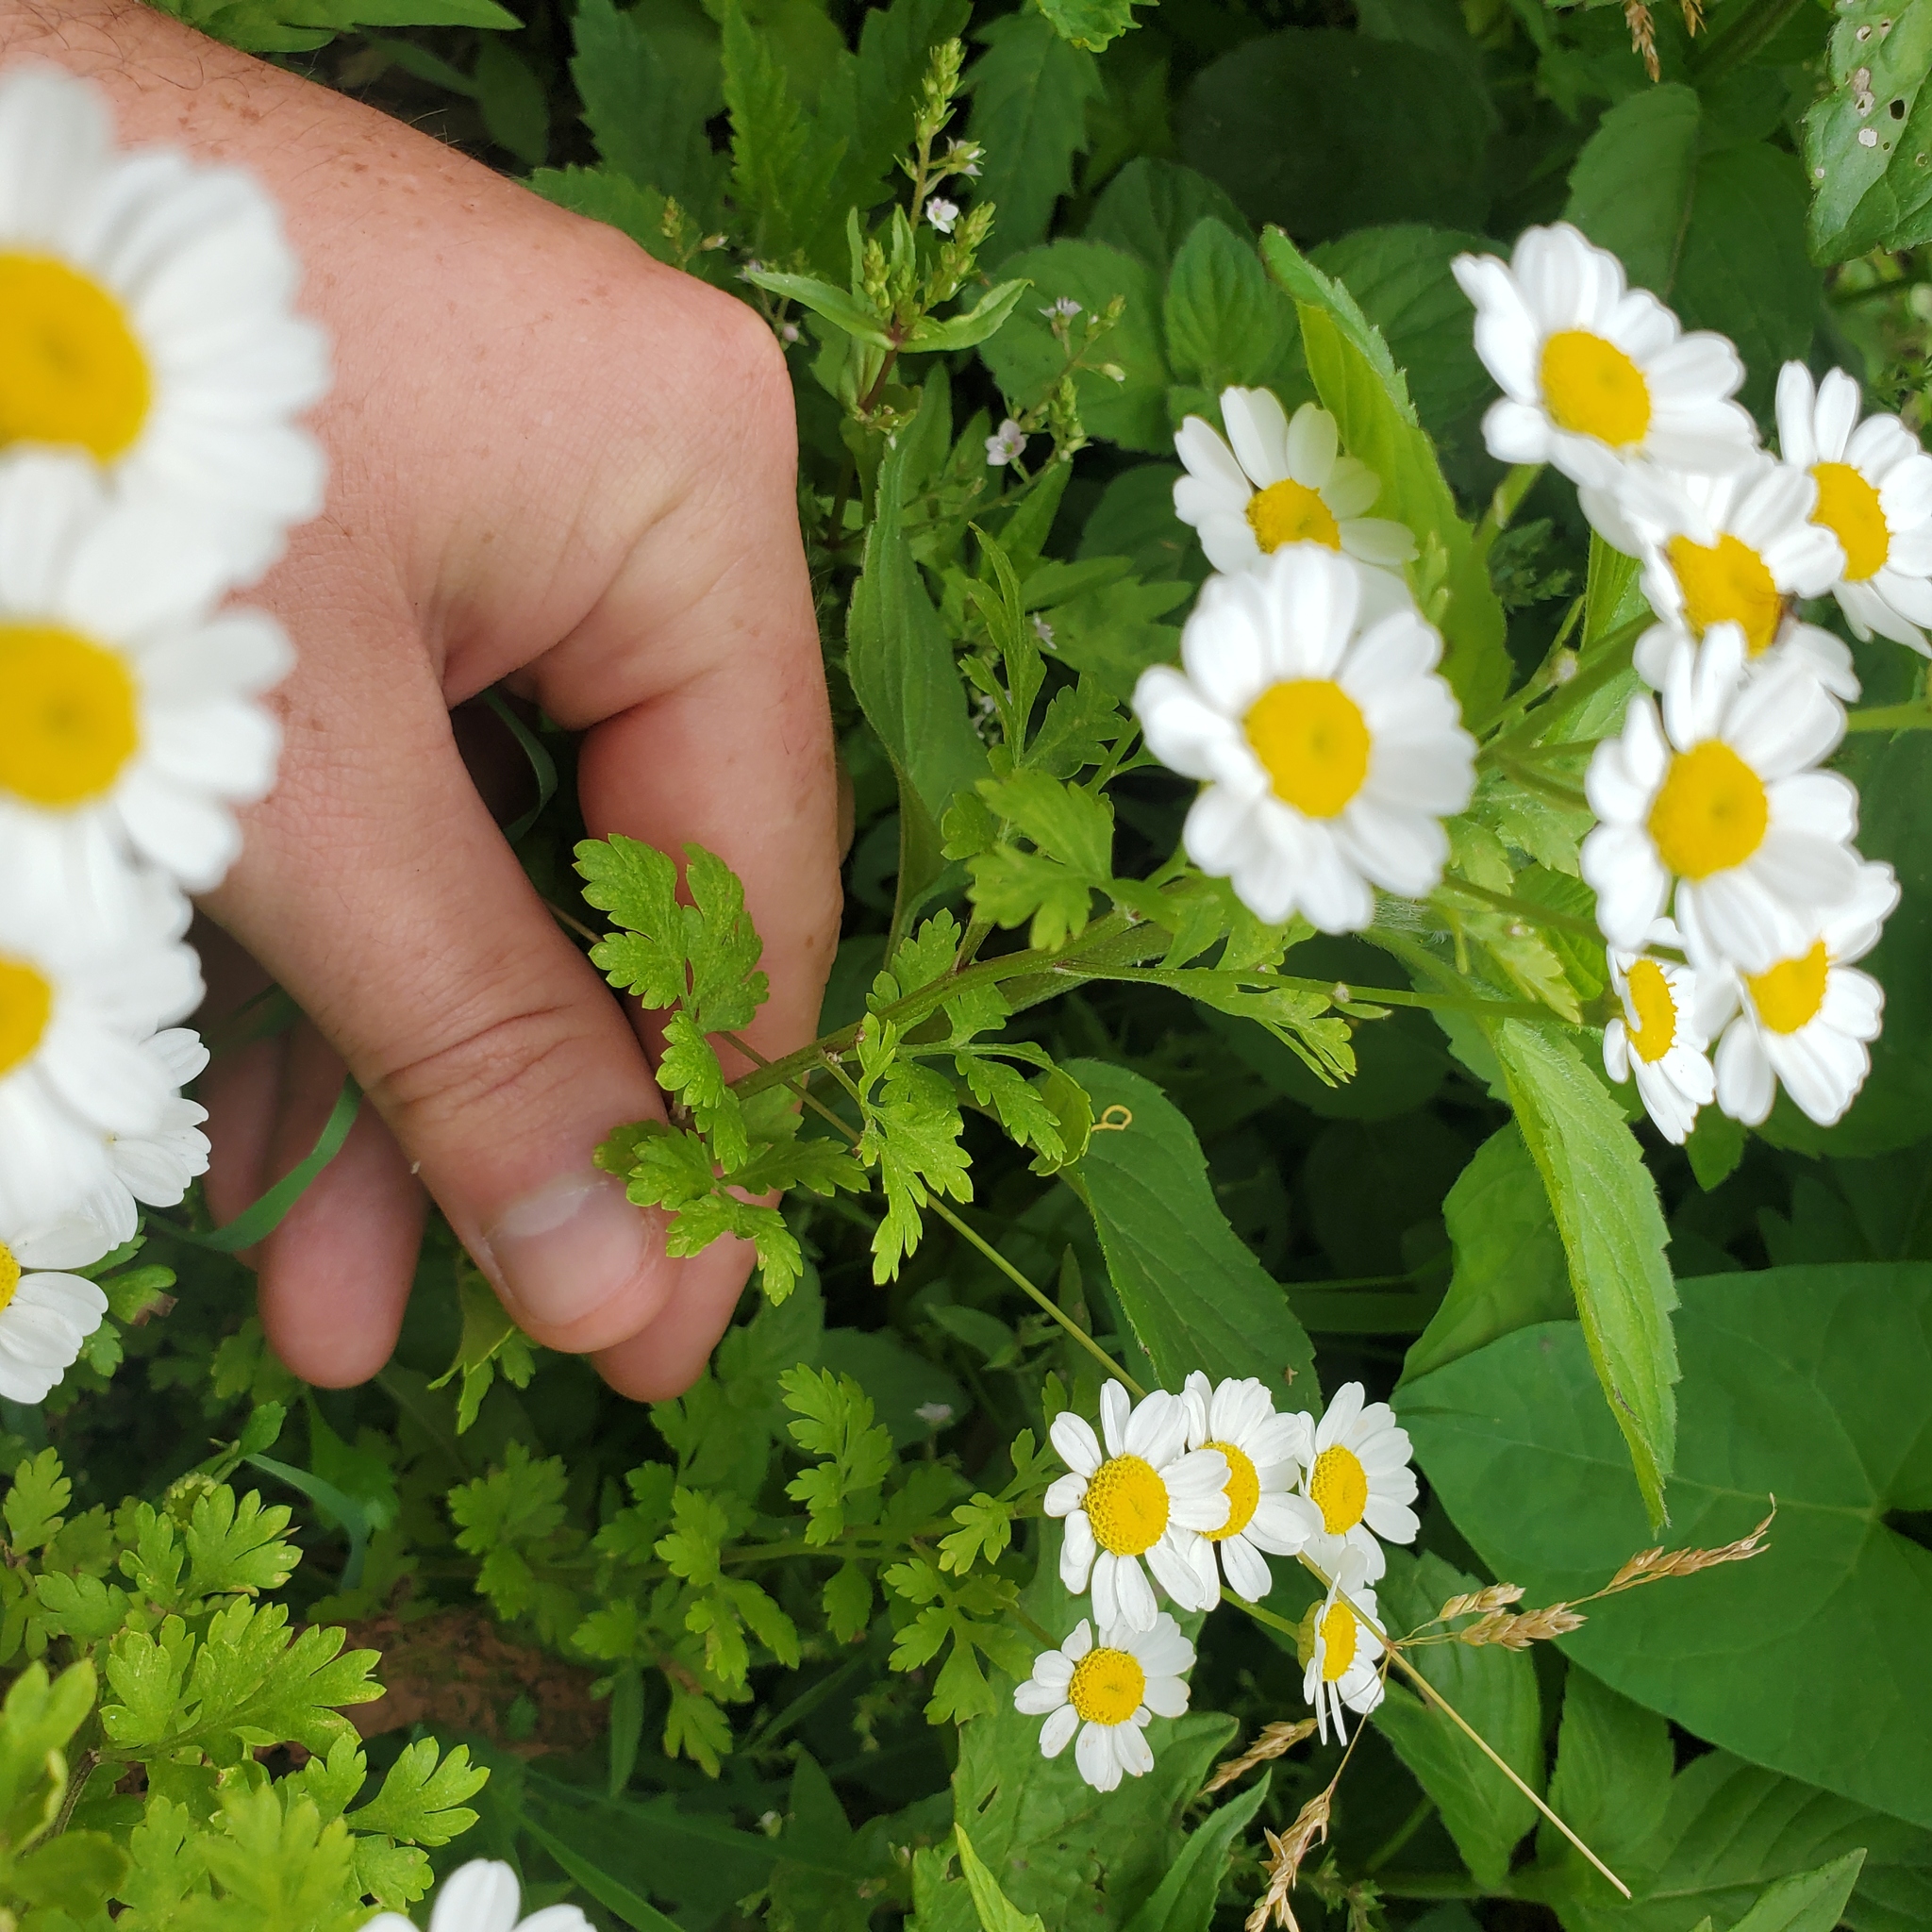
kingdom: Plantae
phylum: Tracheophyta
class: Magnoliopsida
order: Asterales
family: Asteraceae
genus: Tanacetum
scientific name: Tanacetum parthenium
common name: Feverfew
